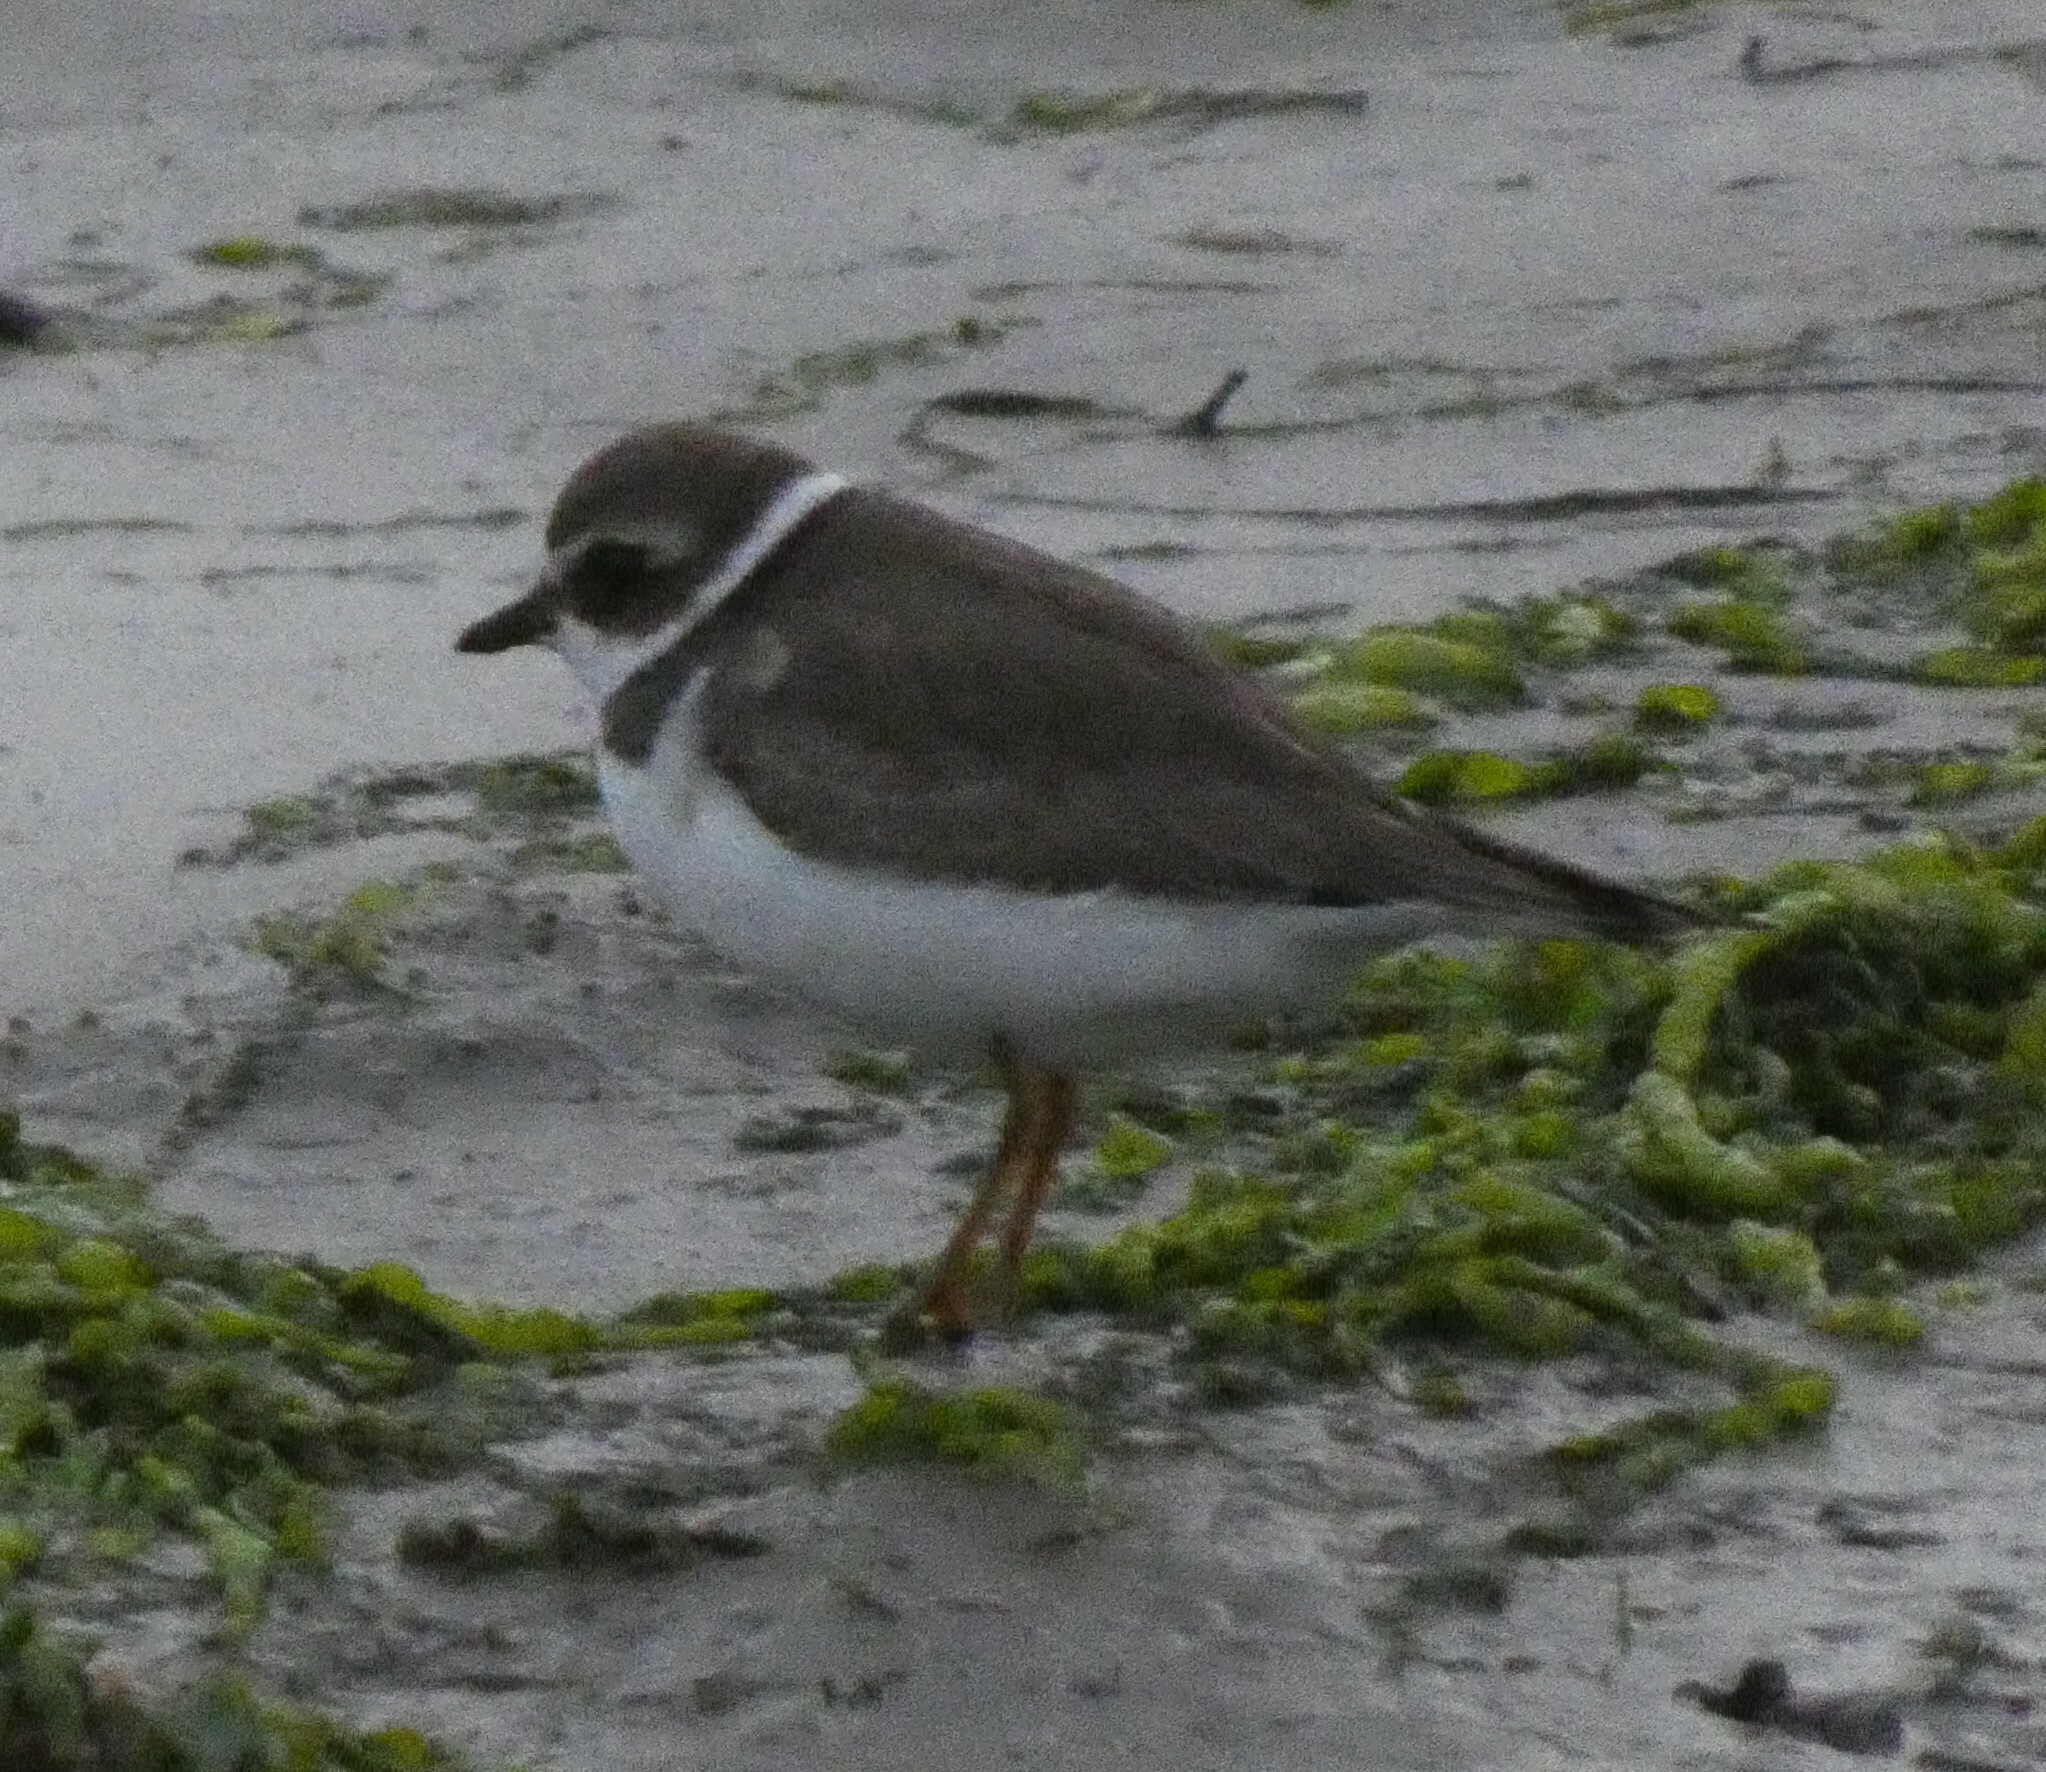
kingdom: Animalia
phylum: Chordata
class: Aves
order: Charadriiformes
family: Charadriidae
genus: Charadrius
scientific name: Charadrius semipalmatus
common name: Semipalmated plover
